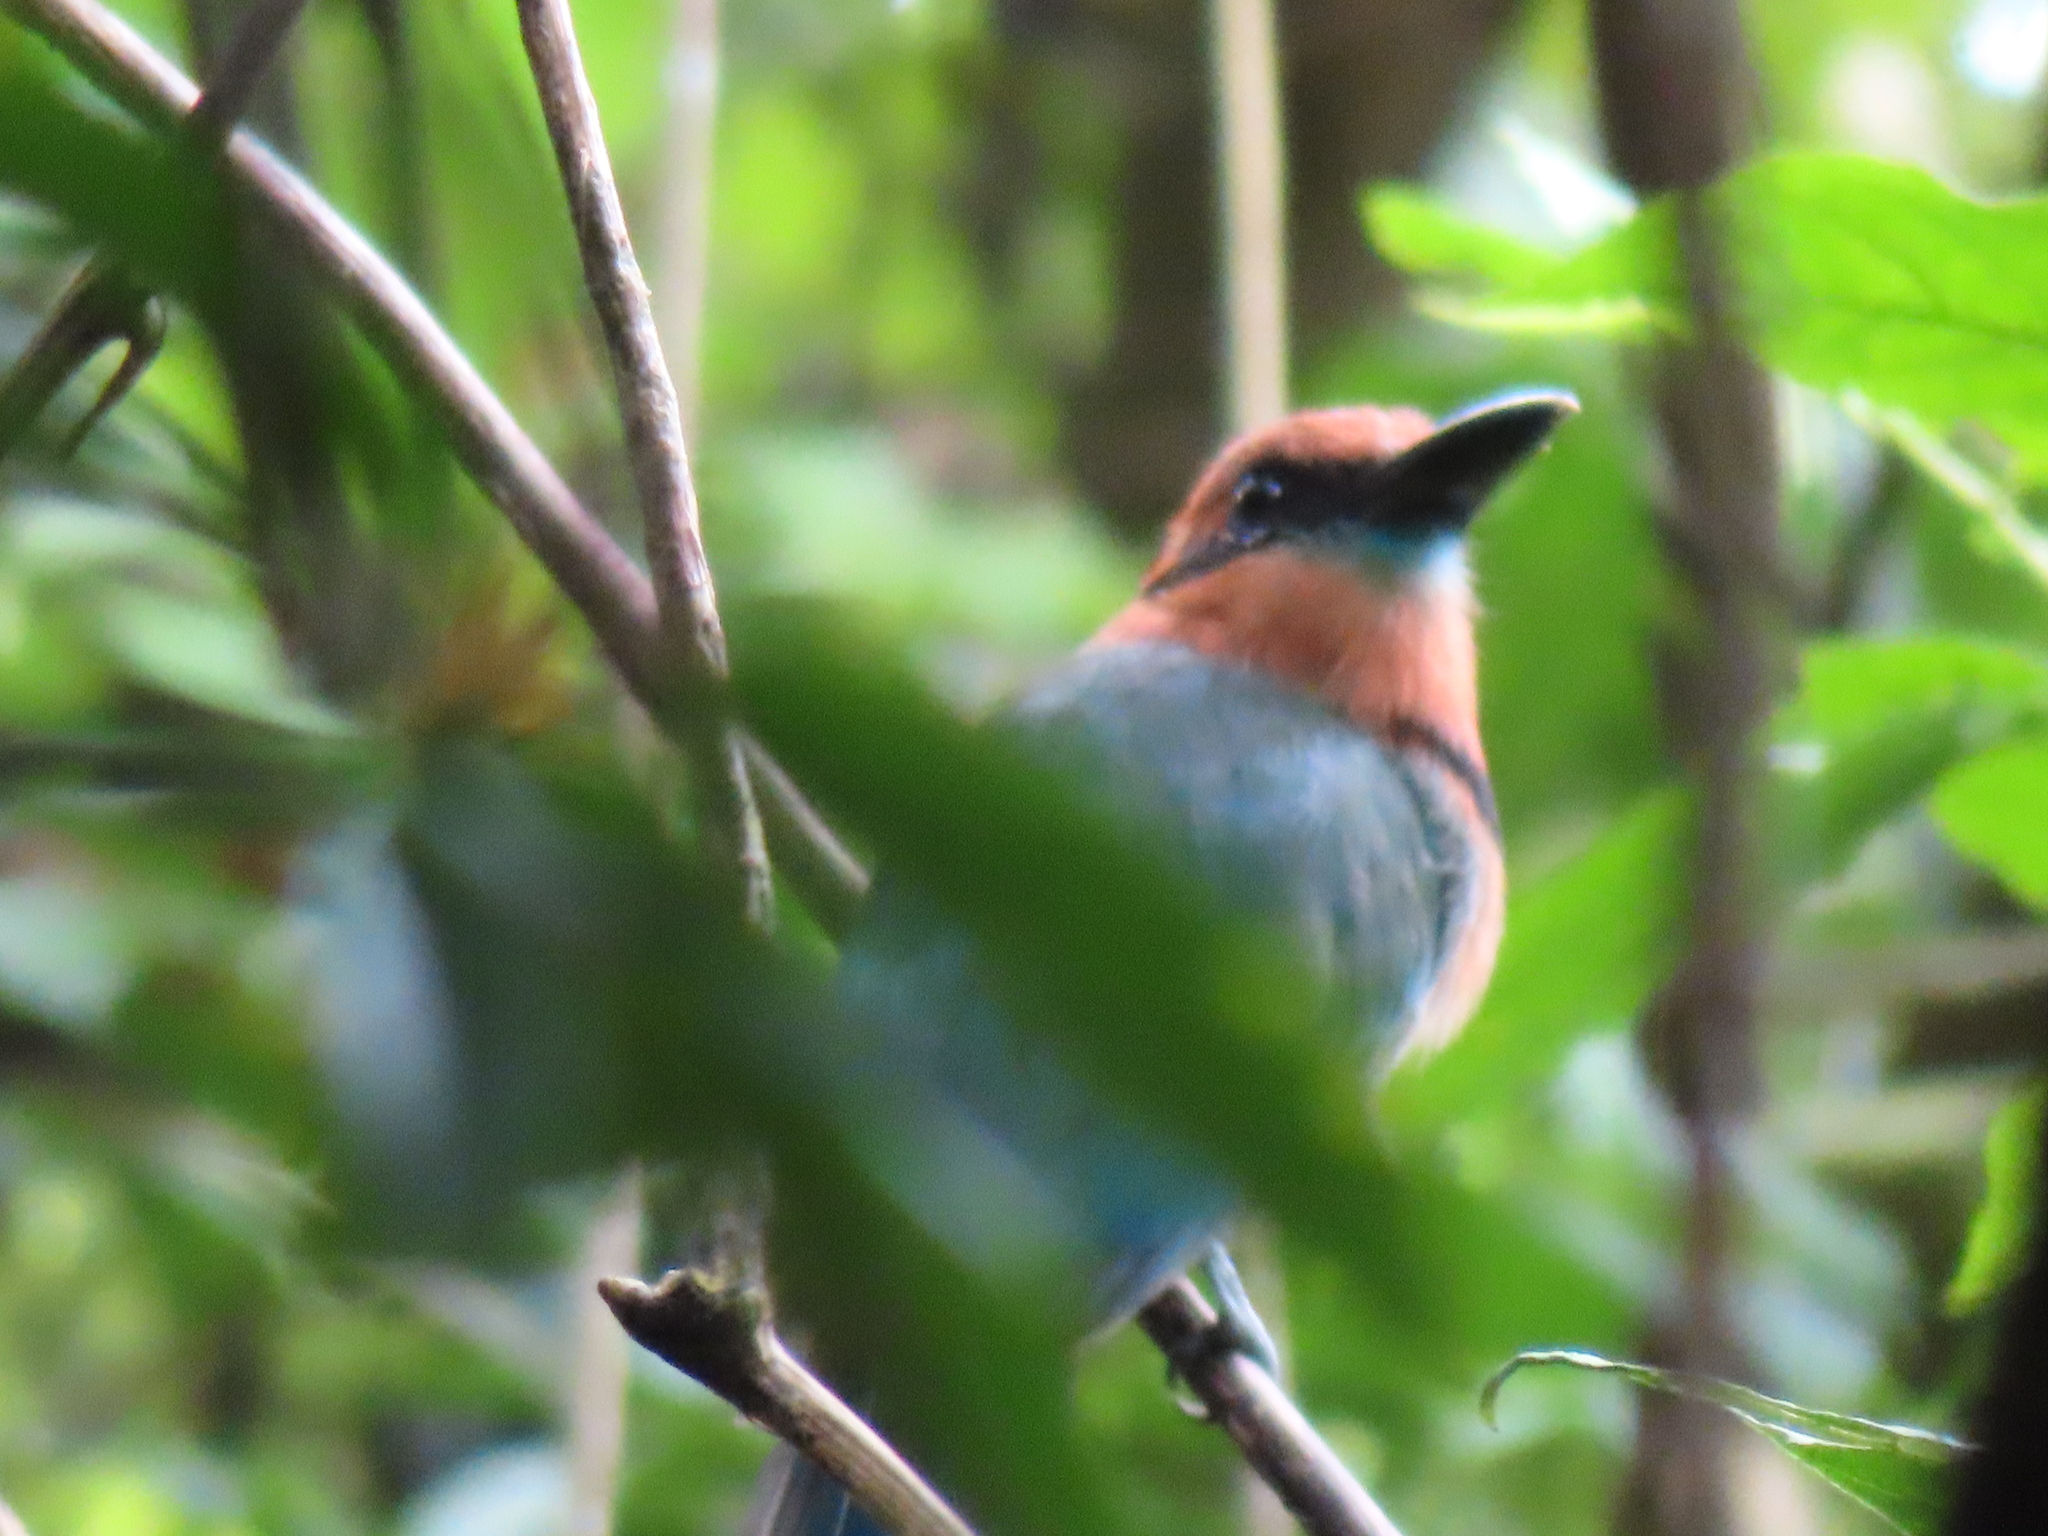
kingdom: Animalia
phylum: Chordata
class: Aves
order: Coraciiformes
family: Momotidae
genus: Electron
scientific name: Electron platyrhynchum
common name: Broad-billed motmot
